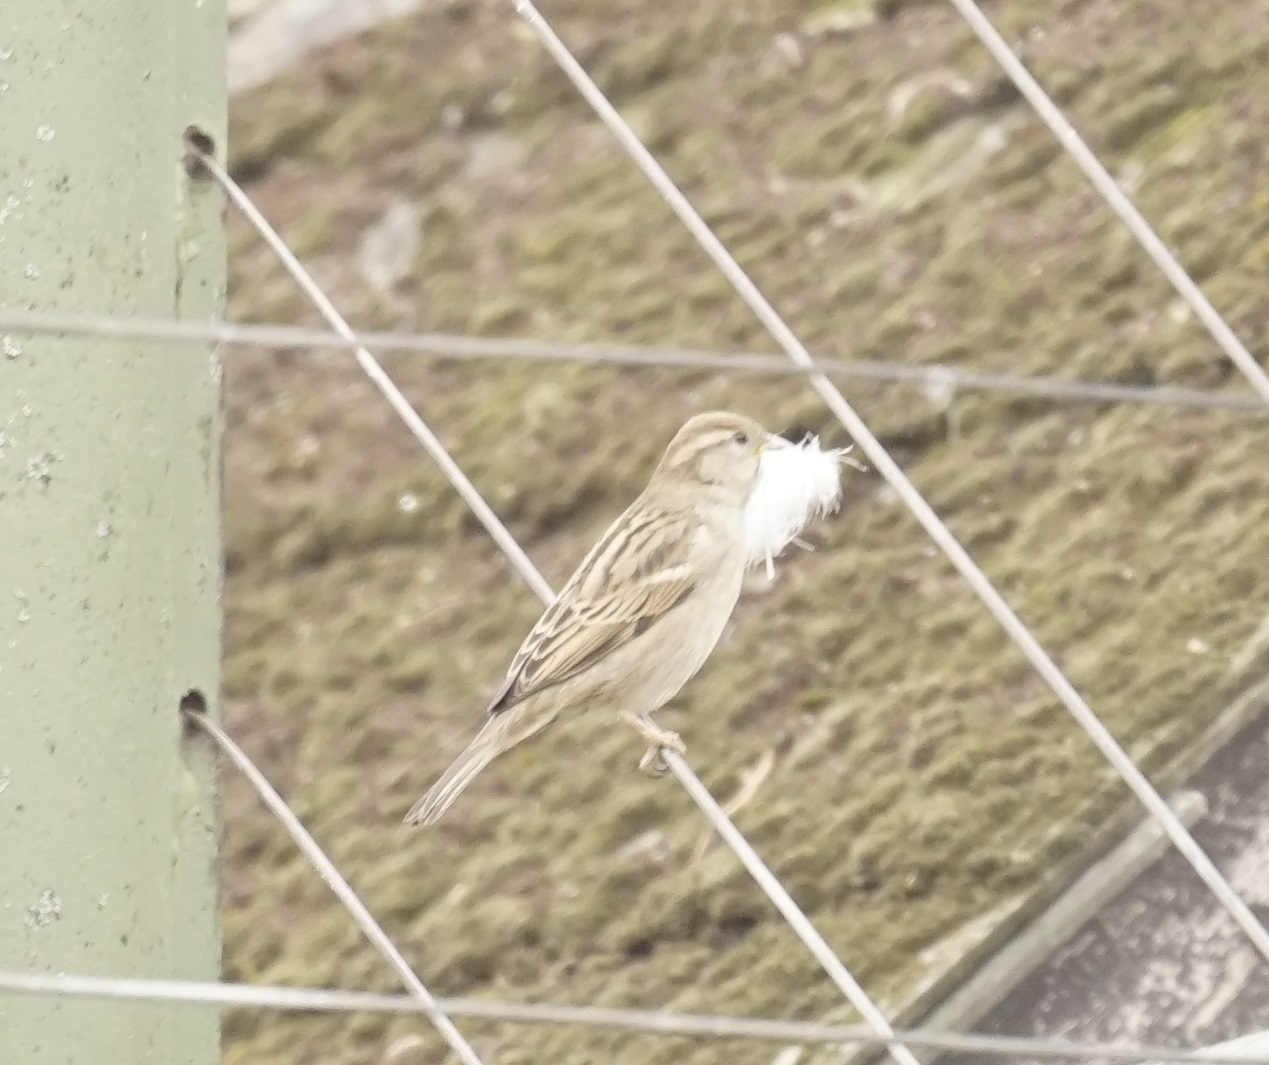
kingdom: Animalia
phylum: Chordata
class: Aves
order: Passeriformes
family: Passeridae
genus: Passer
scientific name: Passer domesticus
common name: House sparrow
